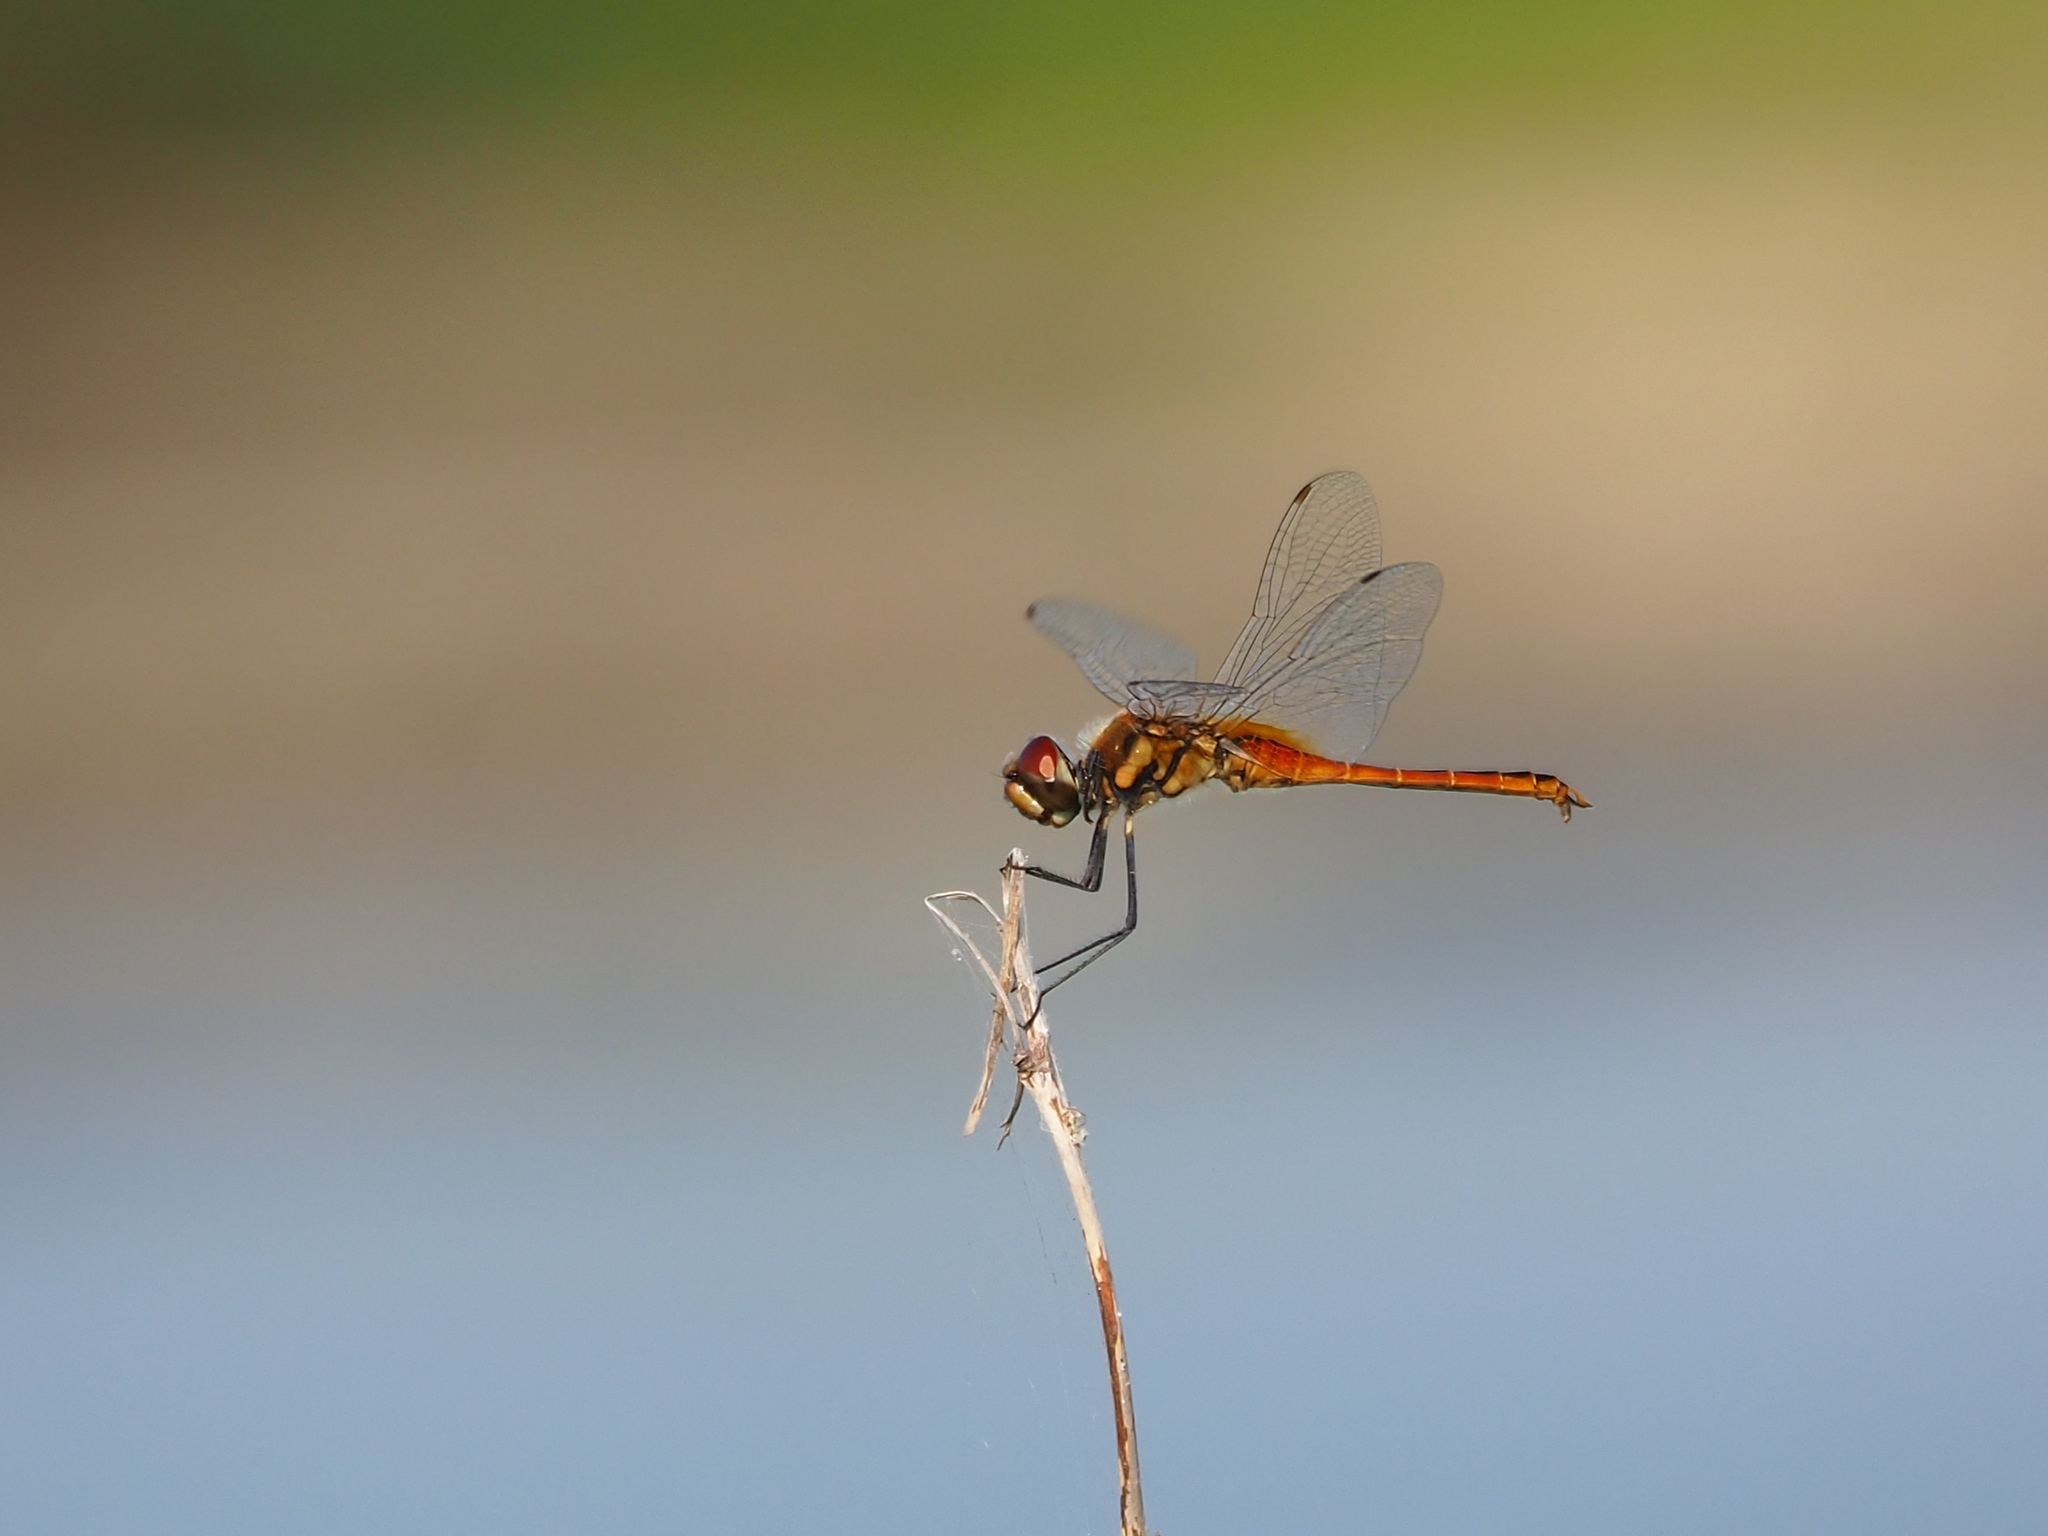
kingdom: Animalia
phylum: Arthropoda
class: Insecta
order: Odonata
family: Libellulidae
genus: Macrodiplax
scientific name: Macrodiplax cora
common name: Coastal glider
